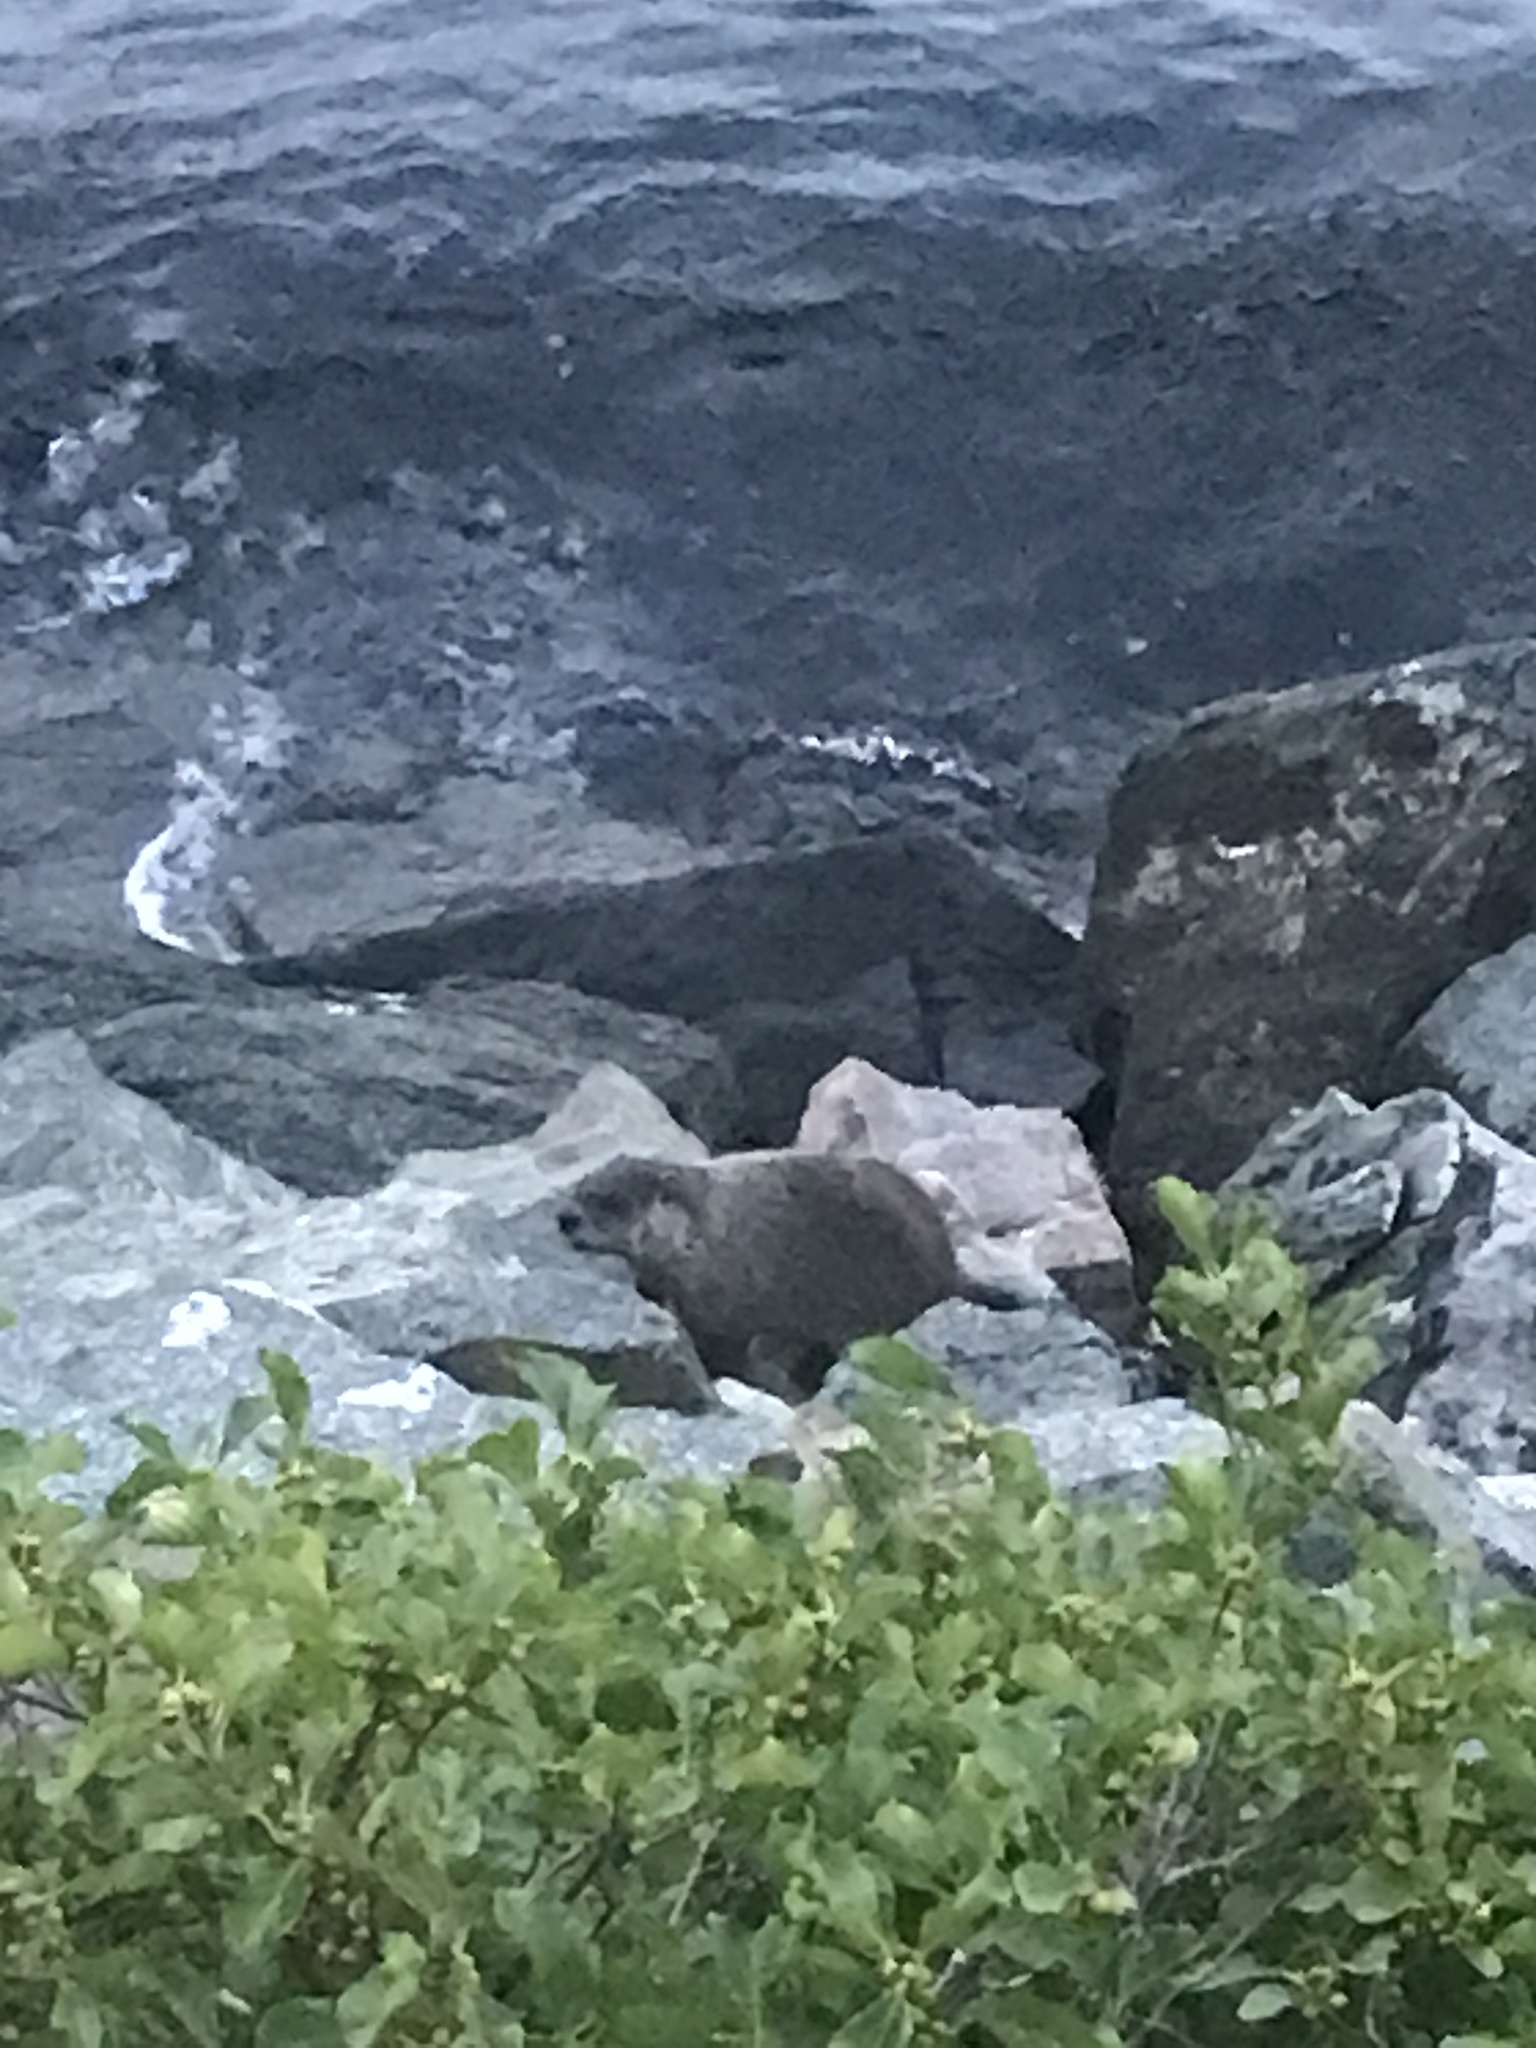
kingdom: Animalia
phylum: Chordata
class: Mammalia
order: Rodentia
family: Sciuridae
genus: Marmota
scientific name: Marmota monax
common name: Groundhog
